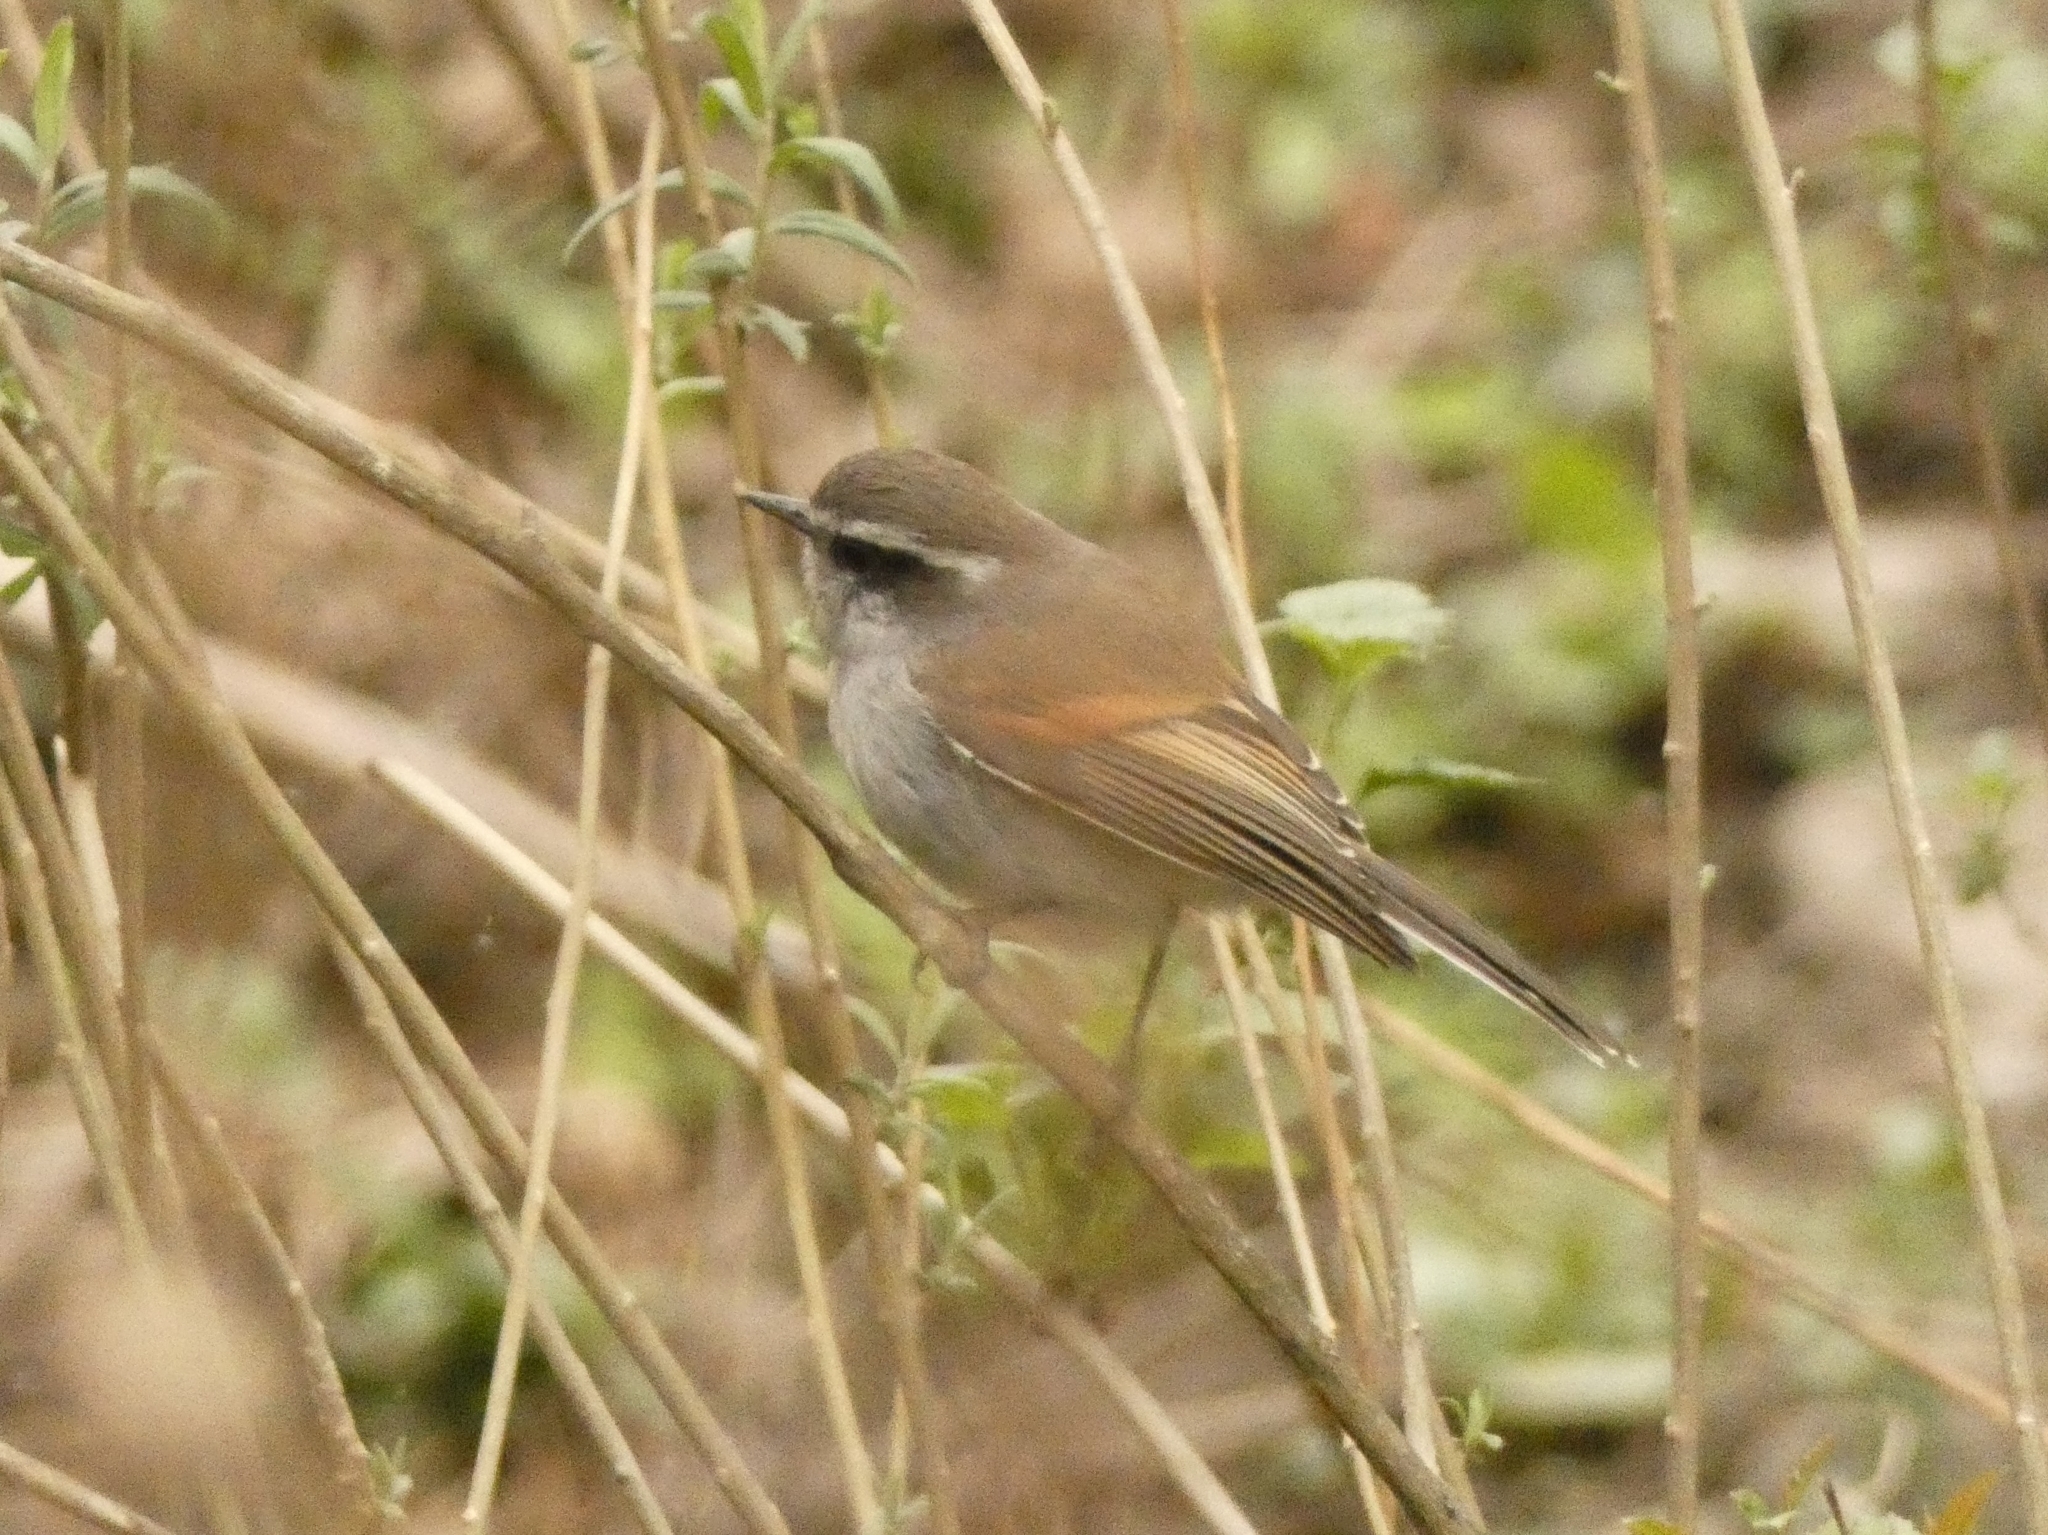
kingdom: Animalia
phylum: Chordata
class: Aves
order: Passeriformes
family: Tyrannidae
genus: Ochthoeca
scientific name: Ochthoeca leucophrys
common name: White-browed chat-tyrant
